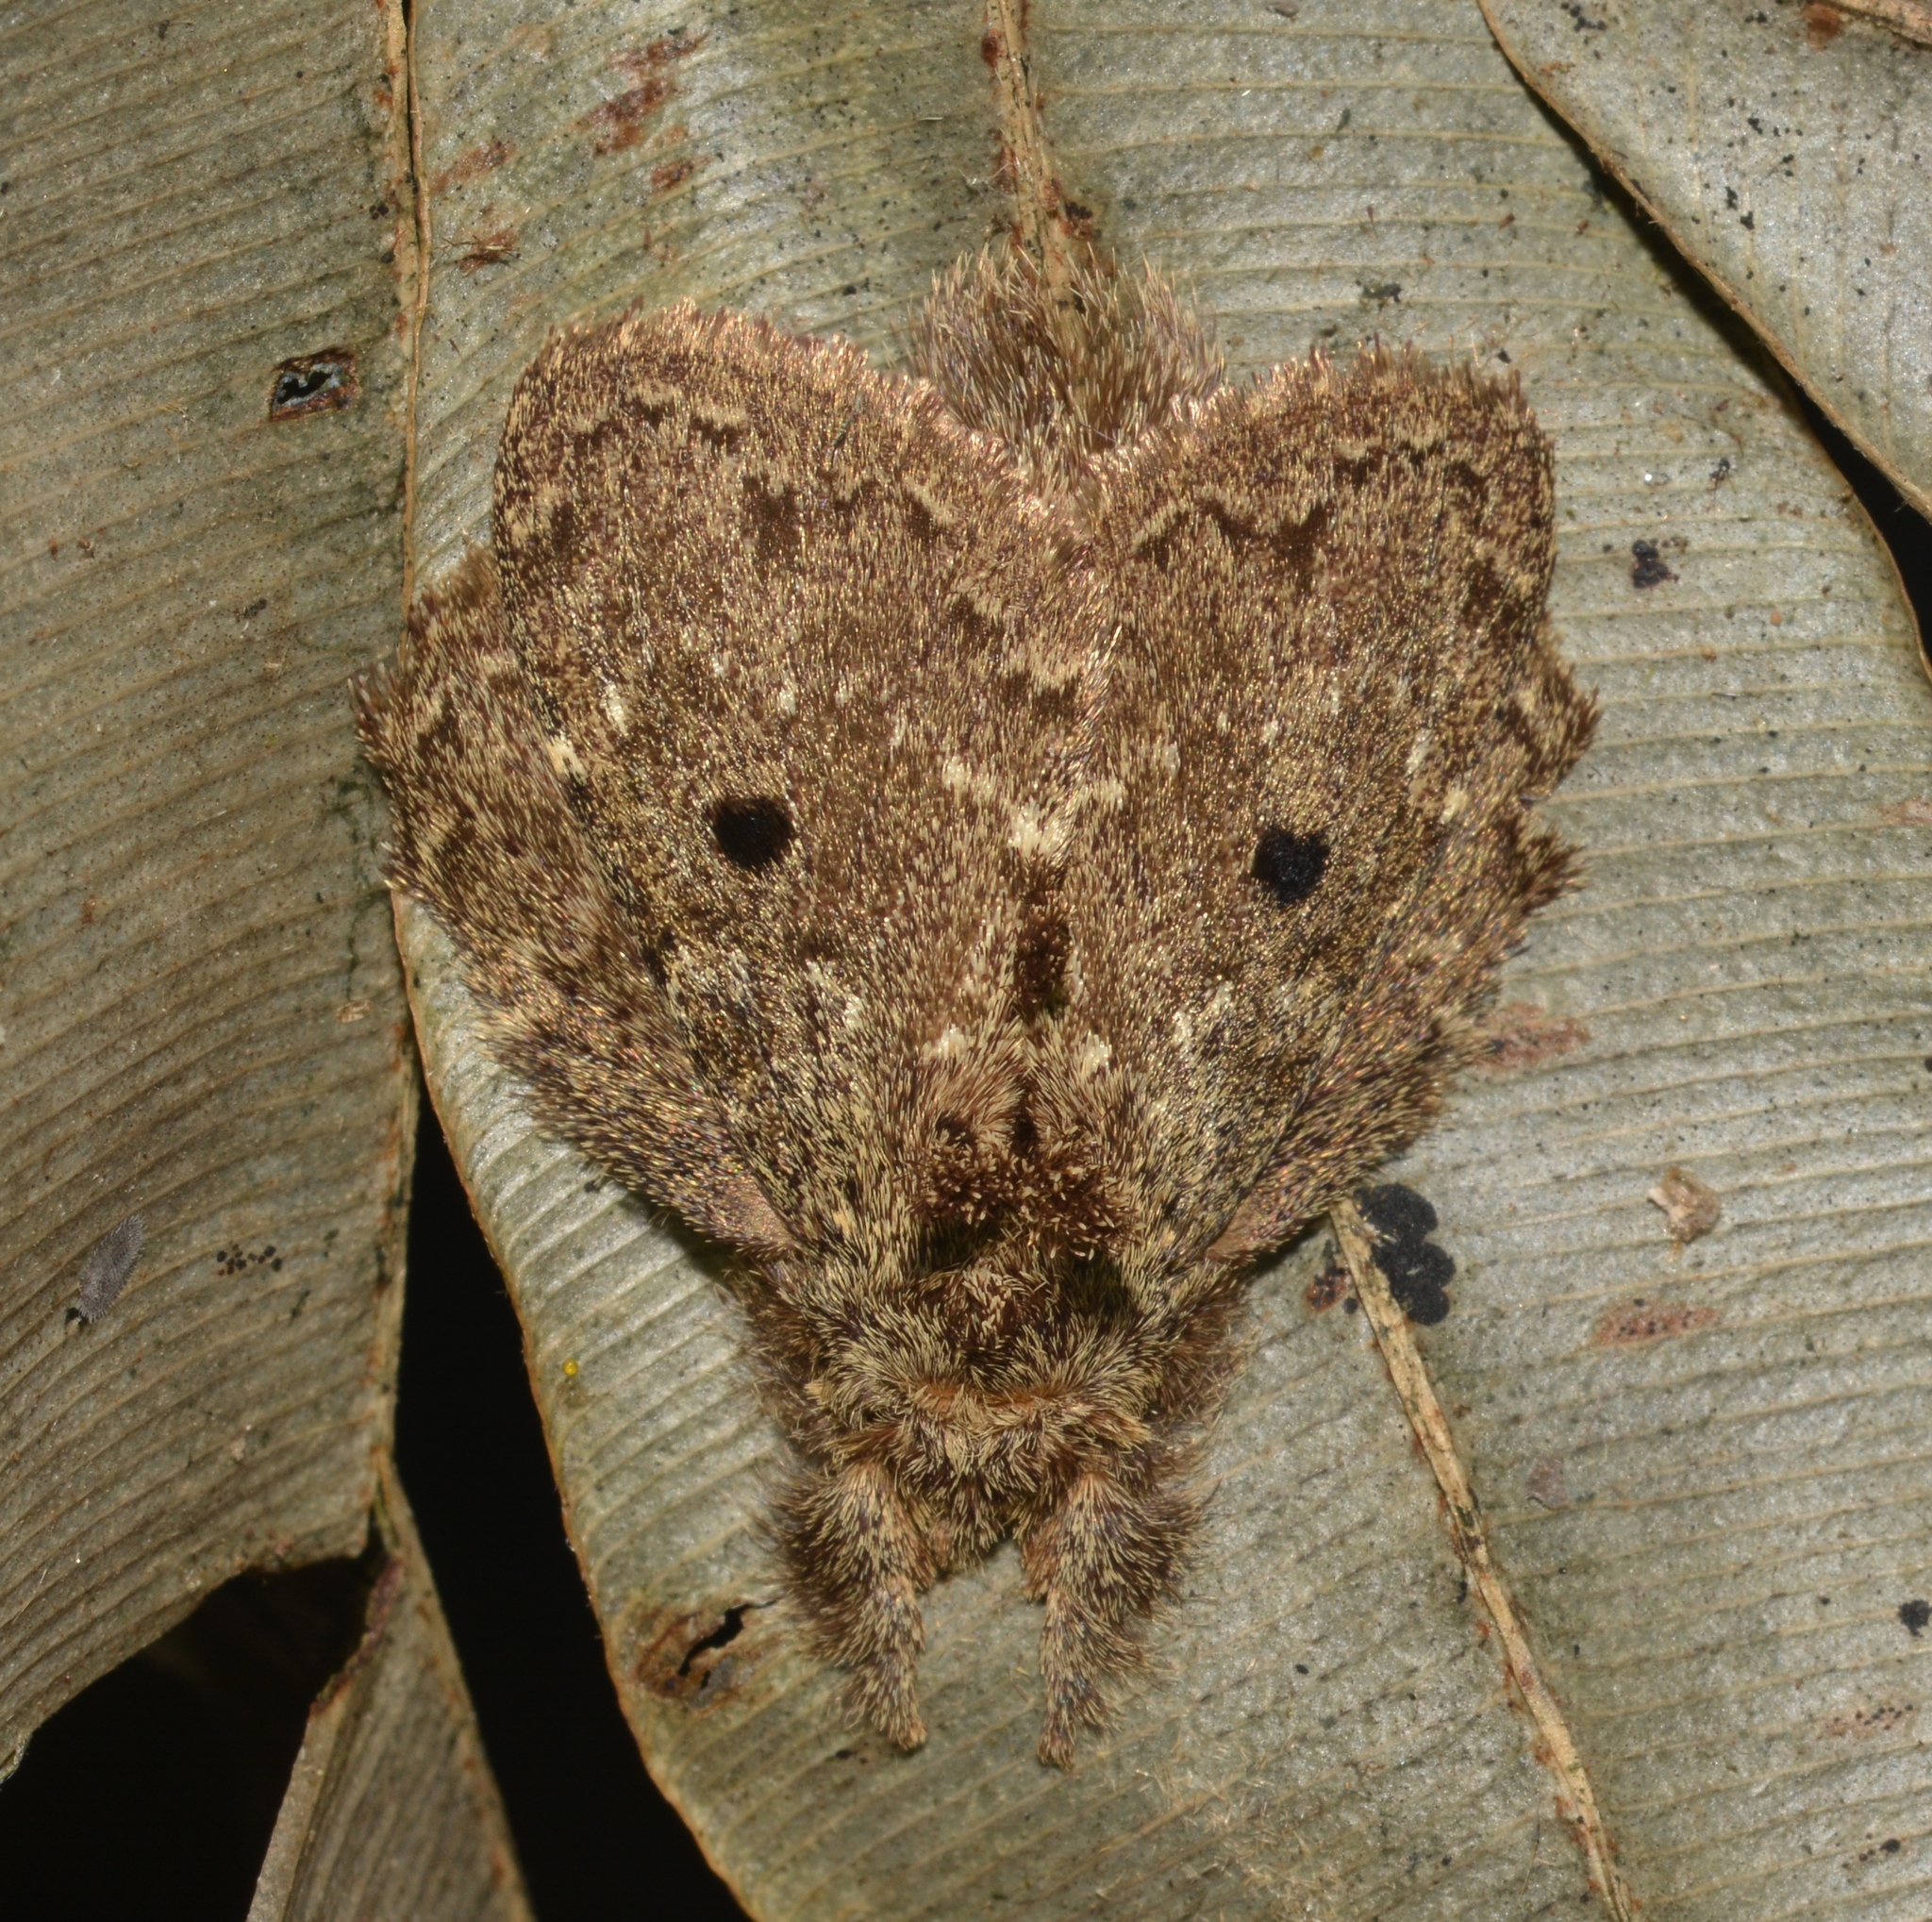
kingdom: Animalia
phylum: Arthropoda
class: Insecta
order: Lepidoptera
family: Lasiocampidae
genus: Euglyphis
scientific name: Euglyphis amathuria
